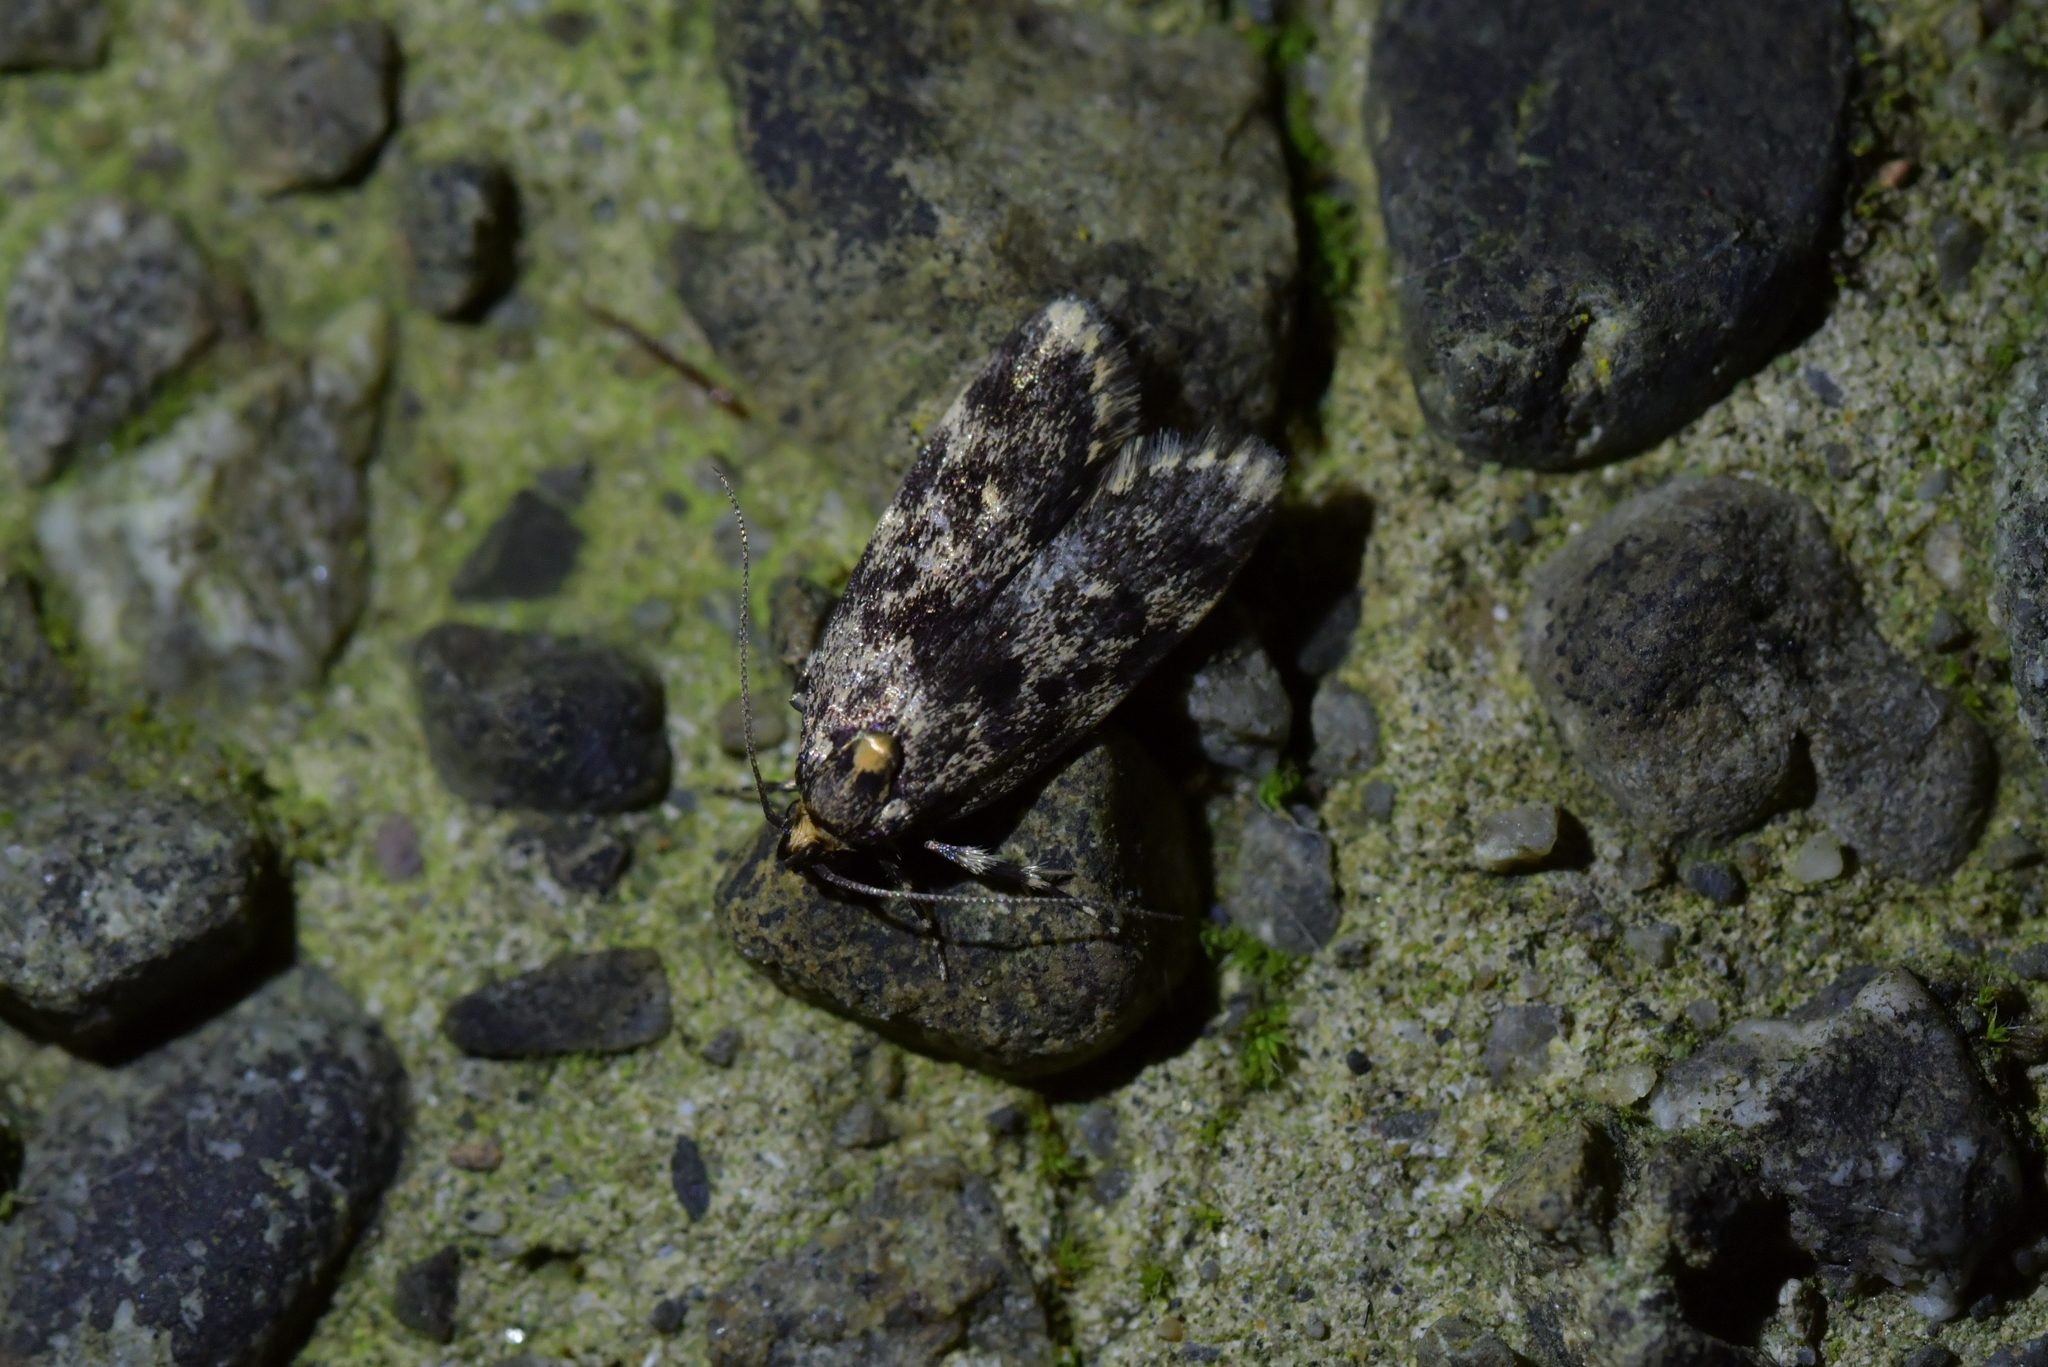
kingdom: Animalia
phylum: Arthropoda
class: Insecta
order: Lepidoptera
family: Oecophoridae
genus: Barea
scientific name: Barea codrella
